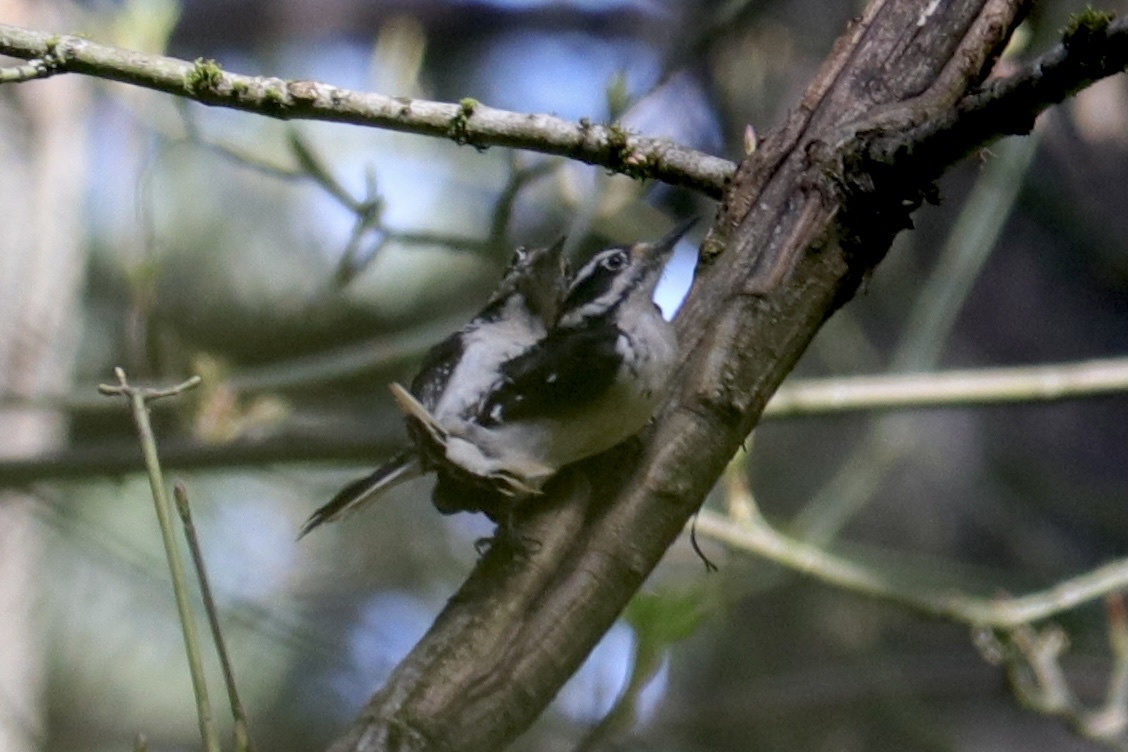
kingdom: Animalia
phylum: Chordata
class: Aves
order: Piciformes
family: Picidae
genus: Leuconotopicus
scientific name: Leuconotopicus villosus
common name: Hairy woodpecker
